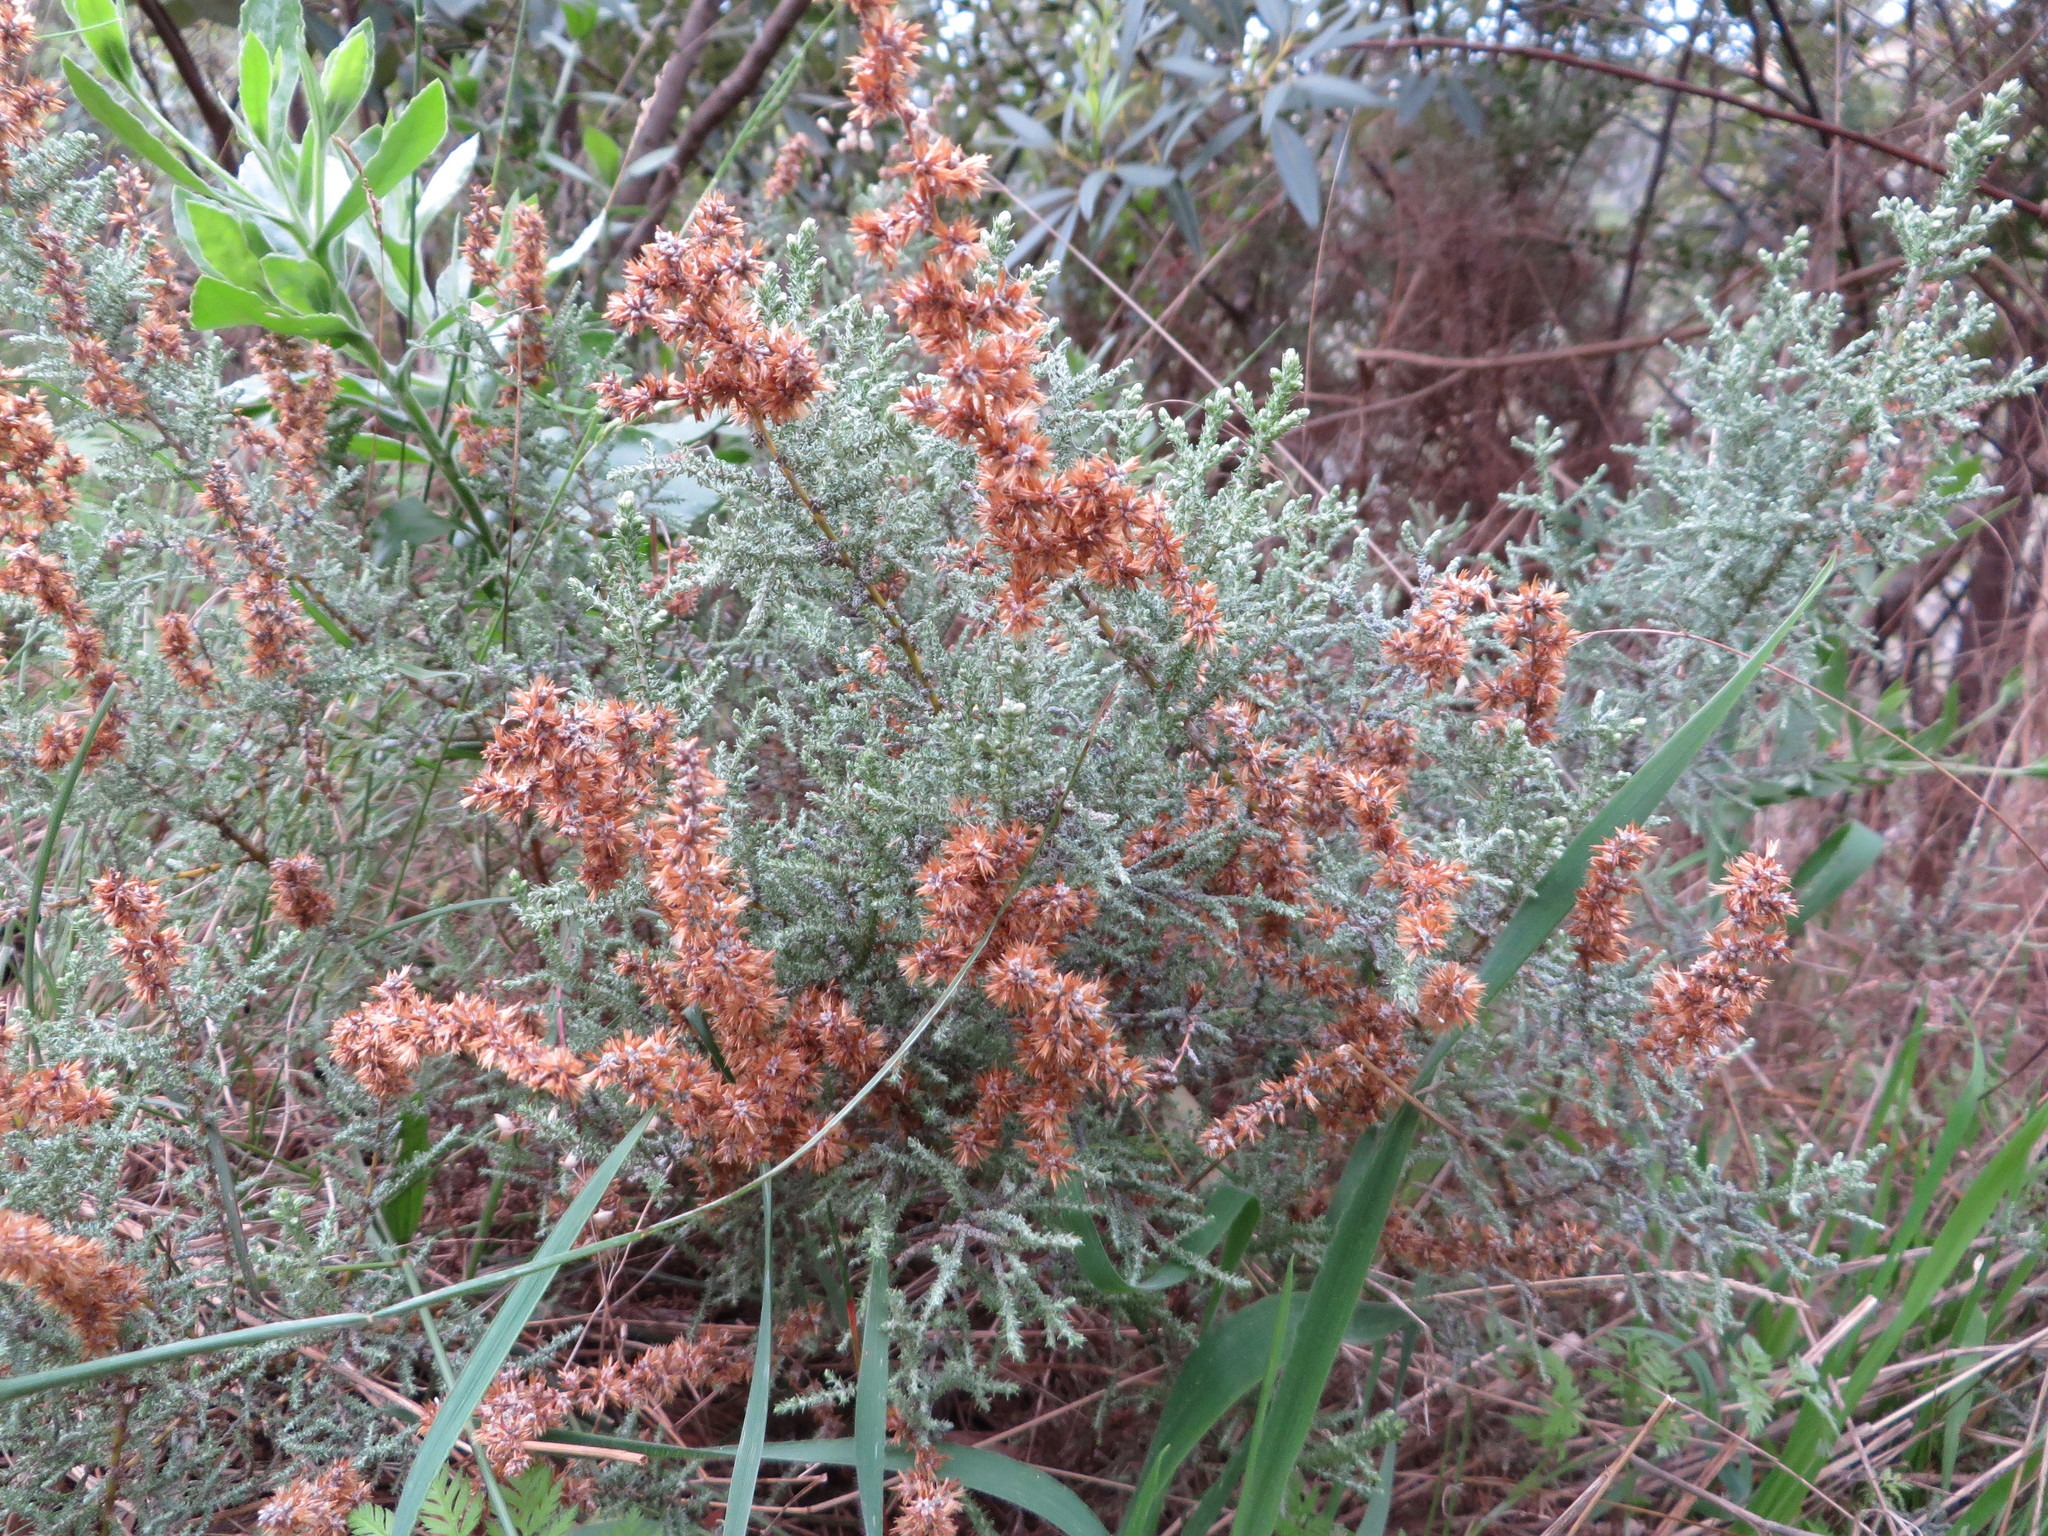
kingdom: Plantae
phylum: Tracheophyta
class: Magnoliopsida
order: Asterales
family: Asteraceae
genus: Seriphium
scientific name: Seriphium plumosum
